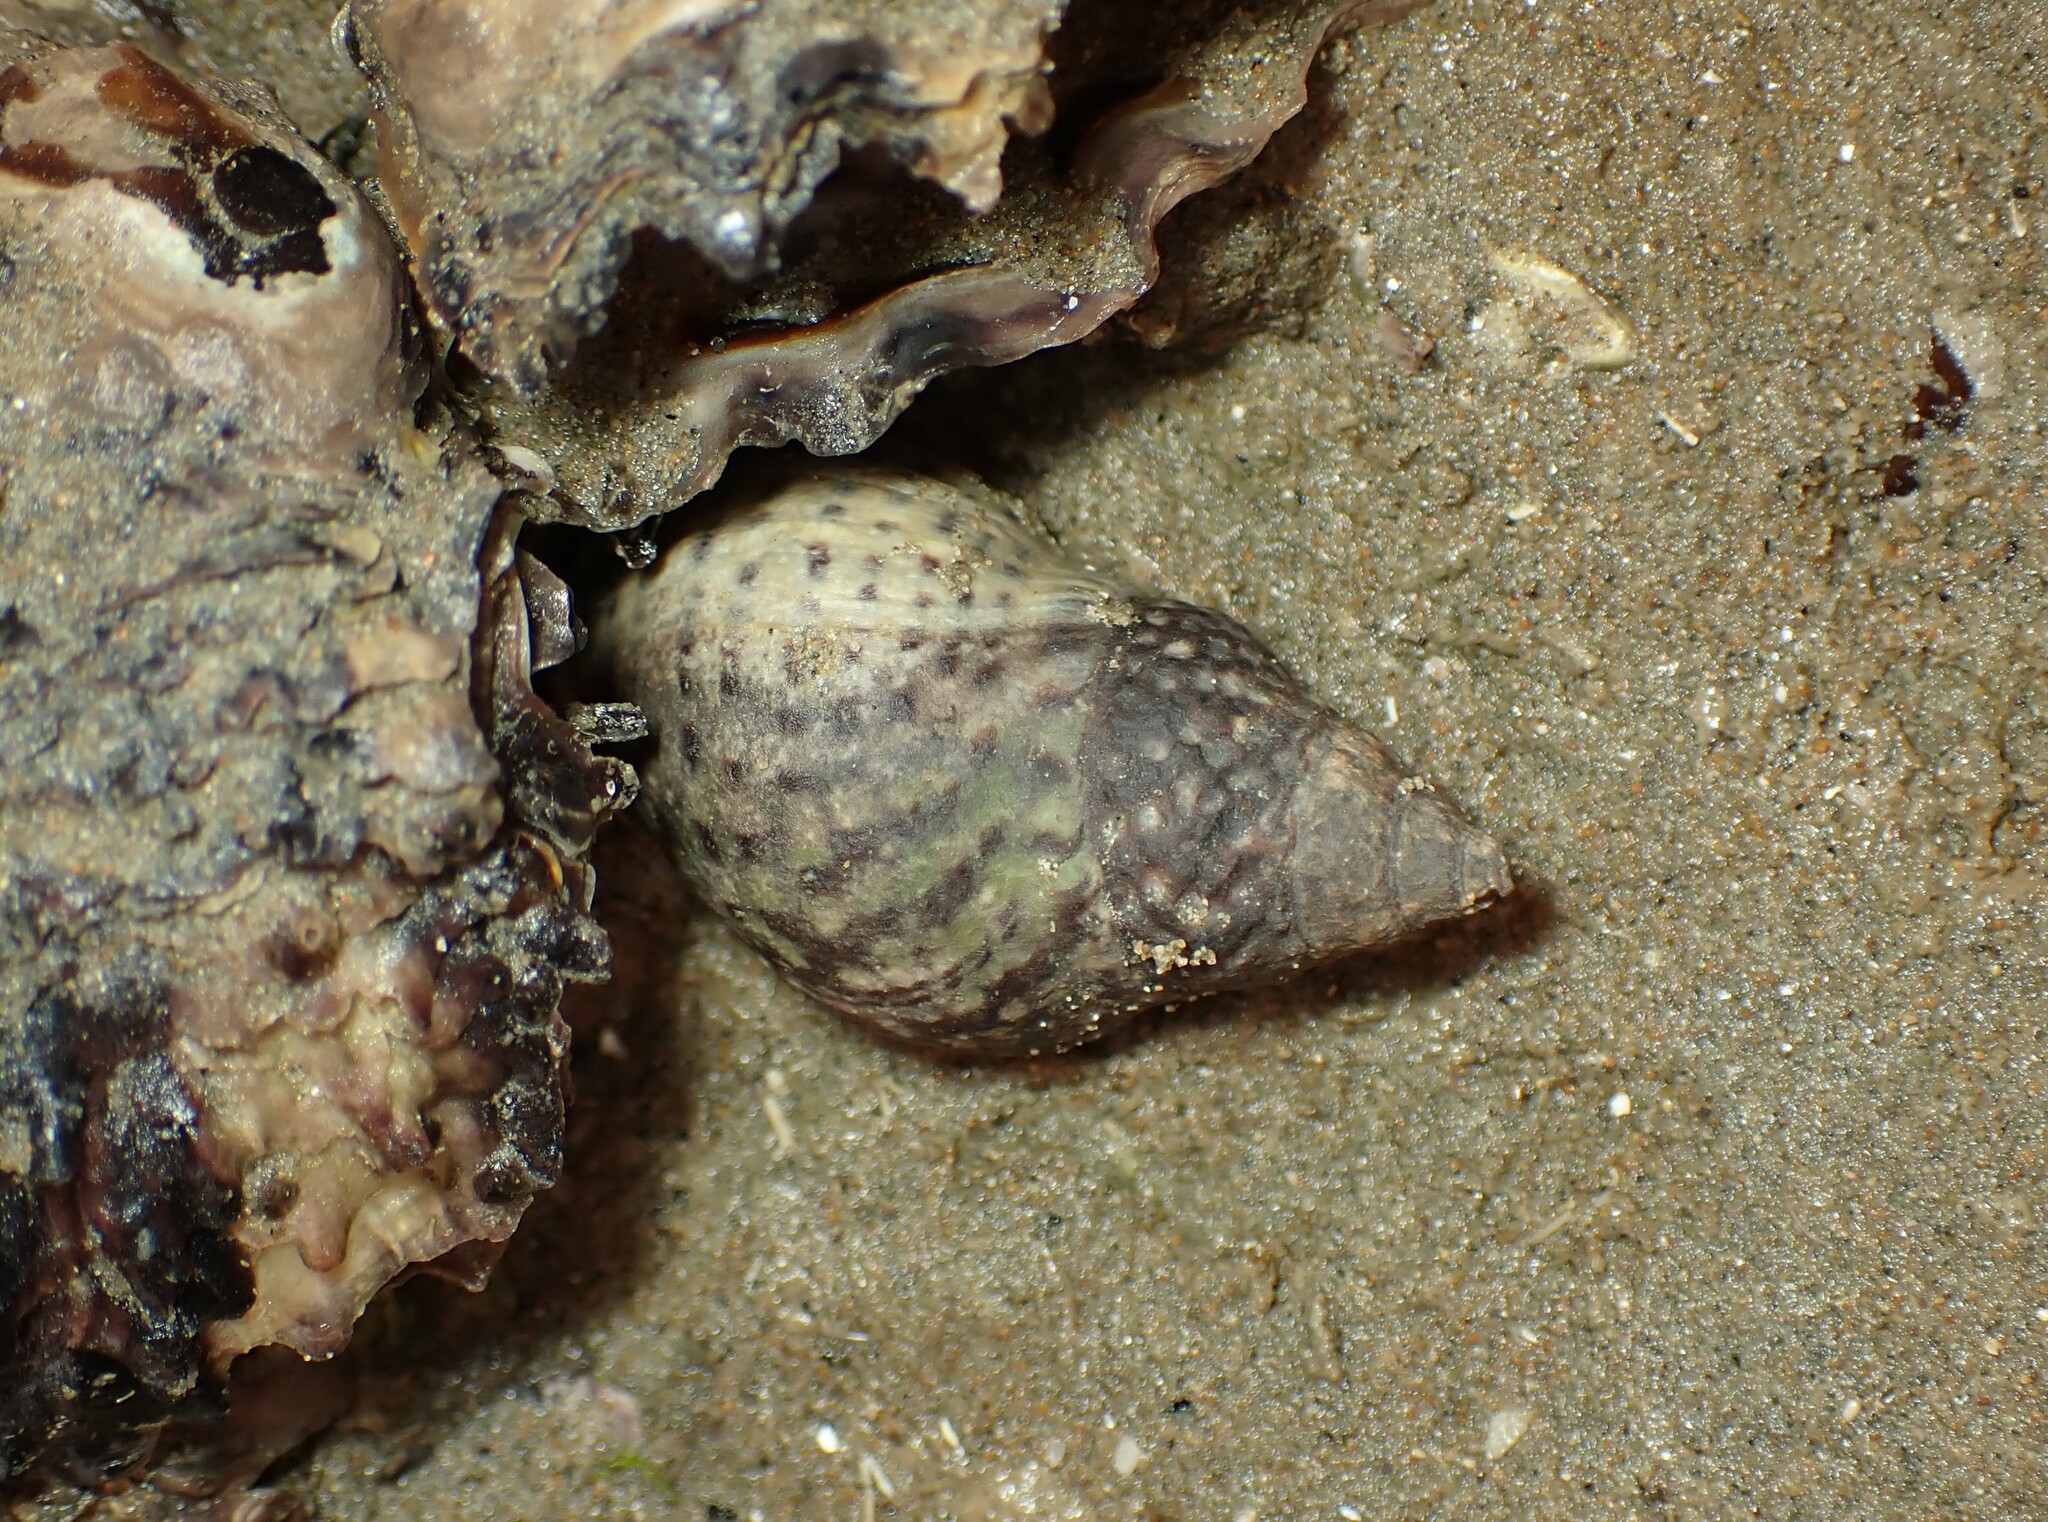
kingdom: Animalia
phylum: Mollusca
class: Gastropoda
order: Neogastropoda
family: Cominellidae
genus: Cominella
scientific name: Cominella maculosa
